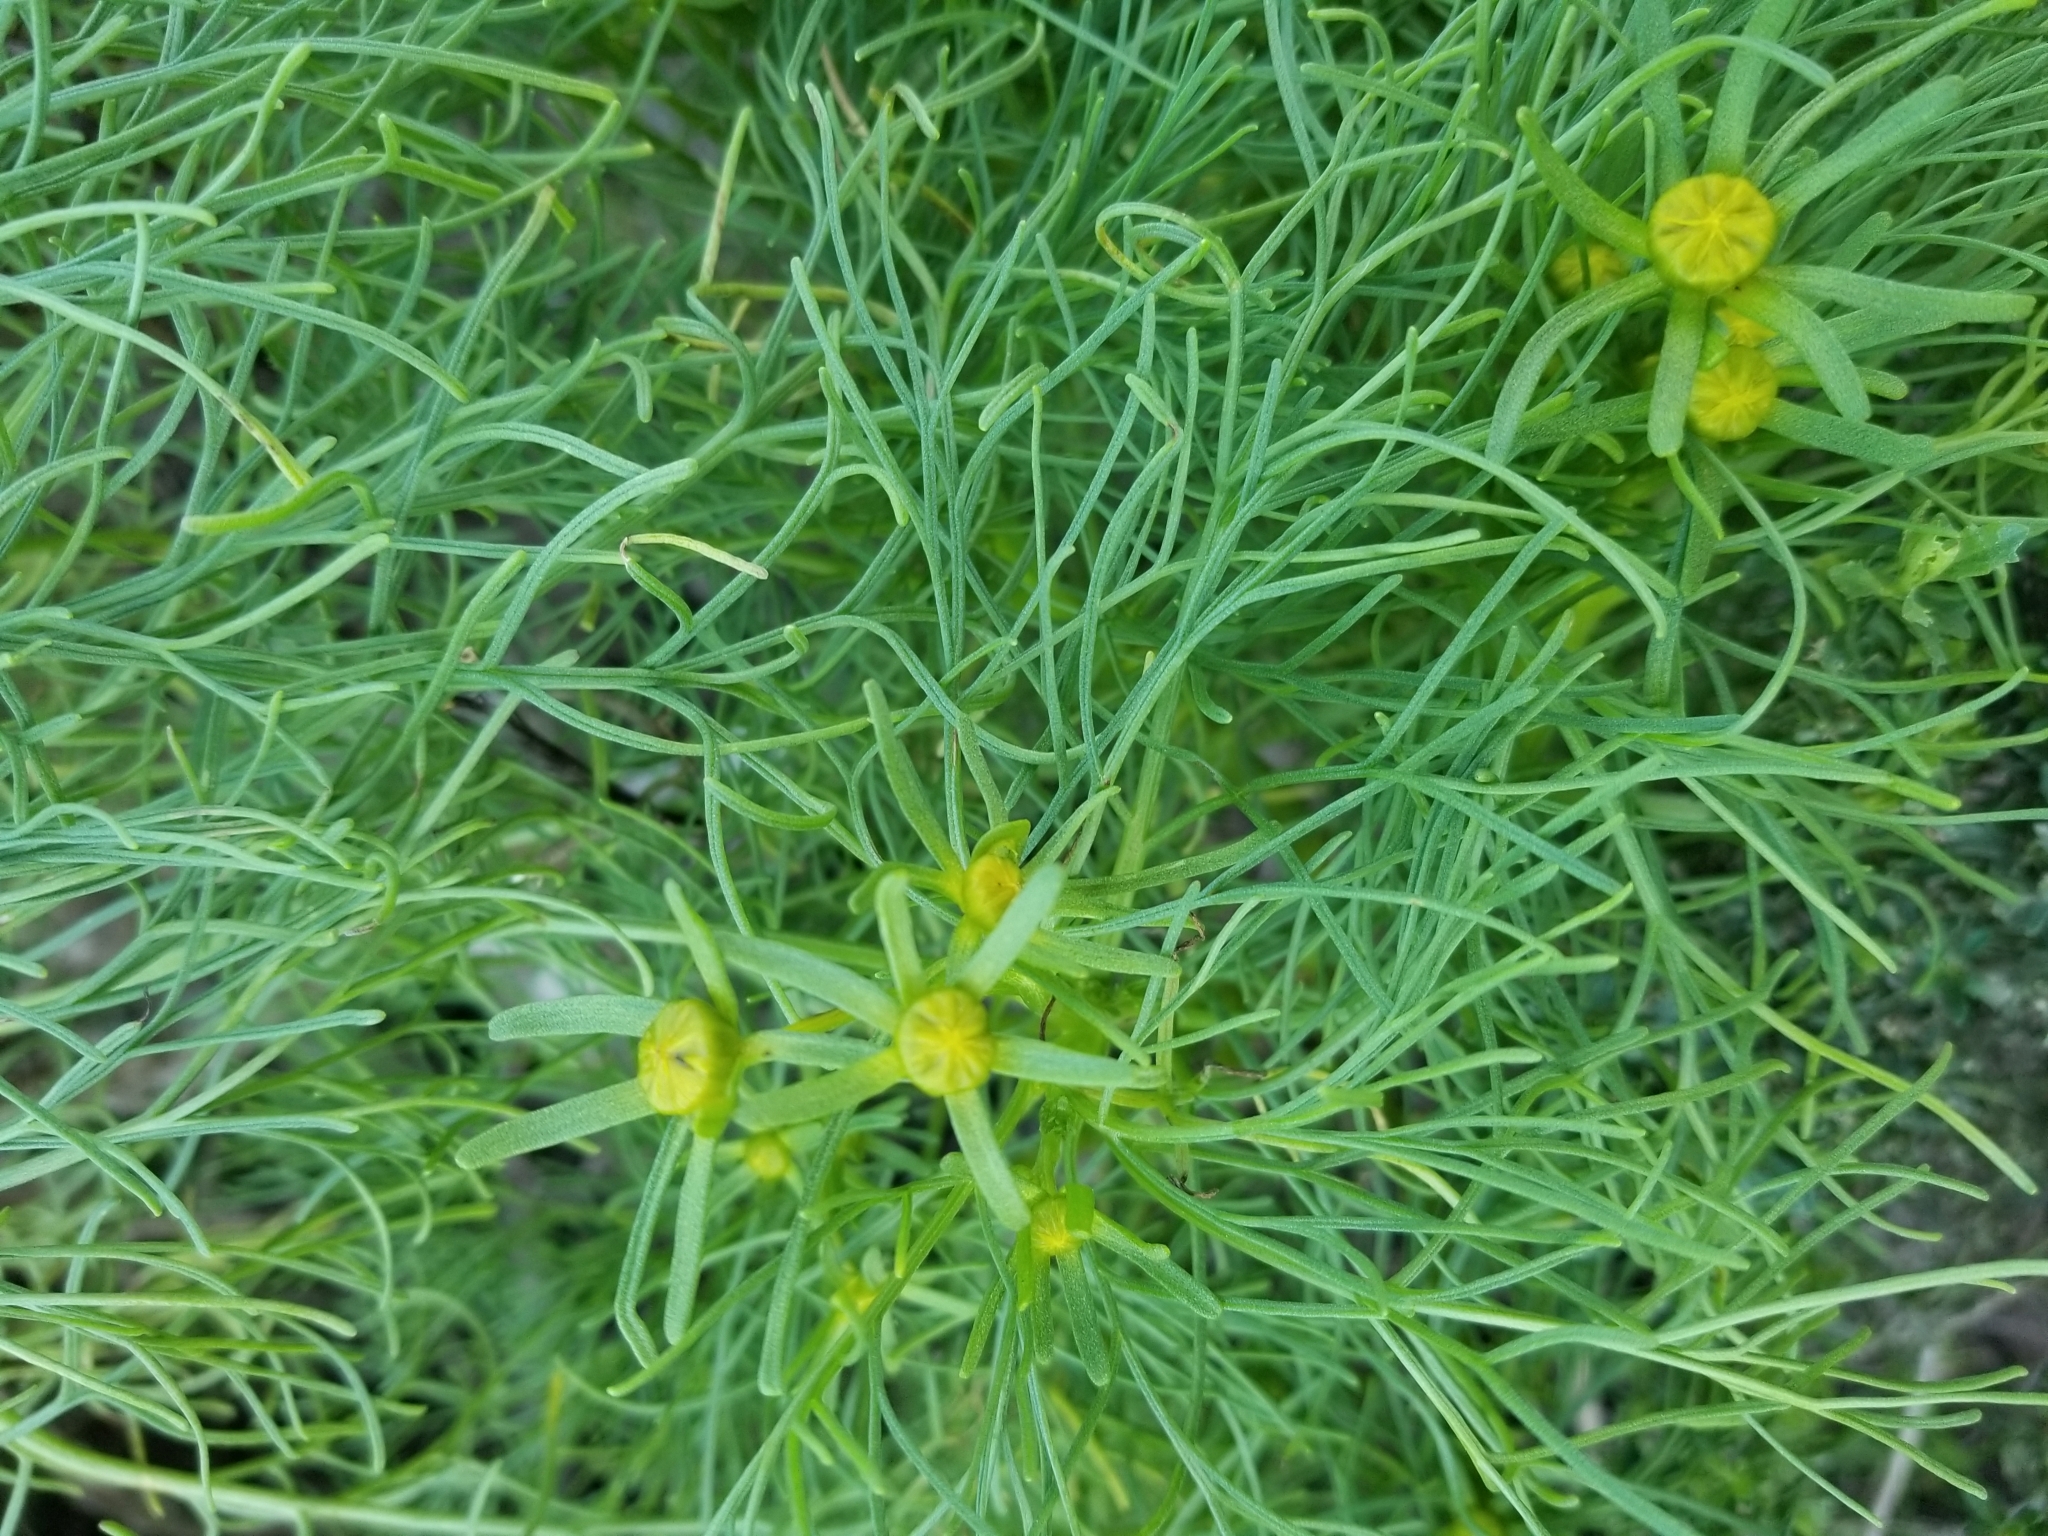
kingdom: Plantae
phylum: Tracheophyta
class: Magnoliopsida
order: Asterales
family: Asteraceae
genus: Coreopsis
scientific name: Coreopsis gigantea
